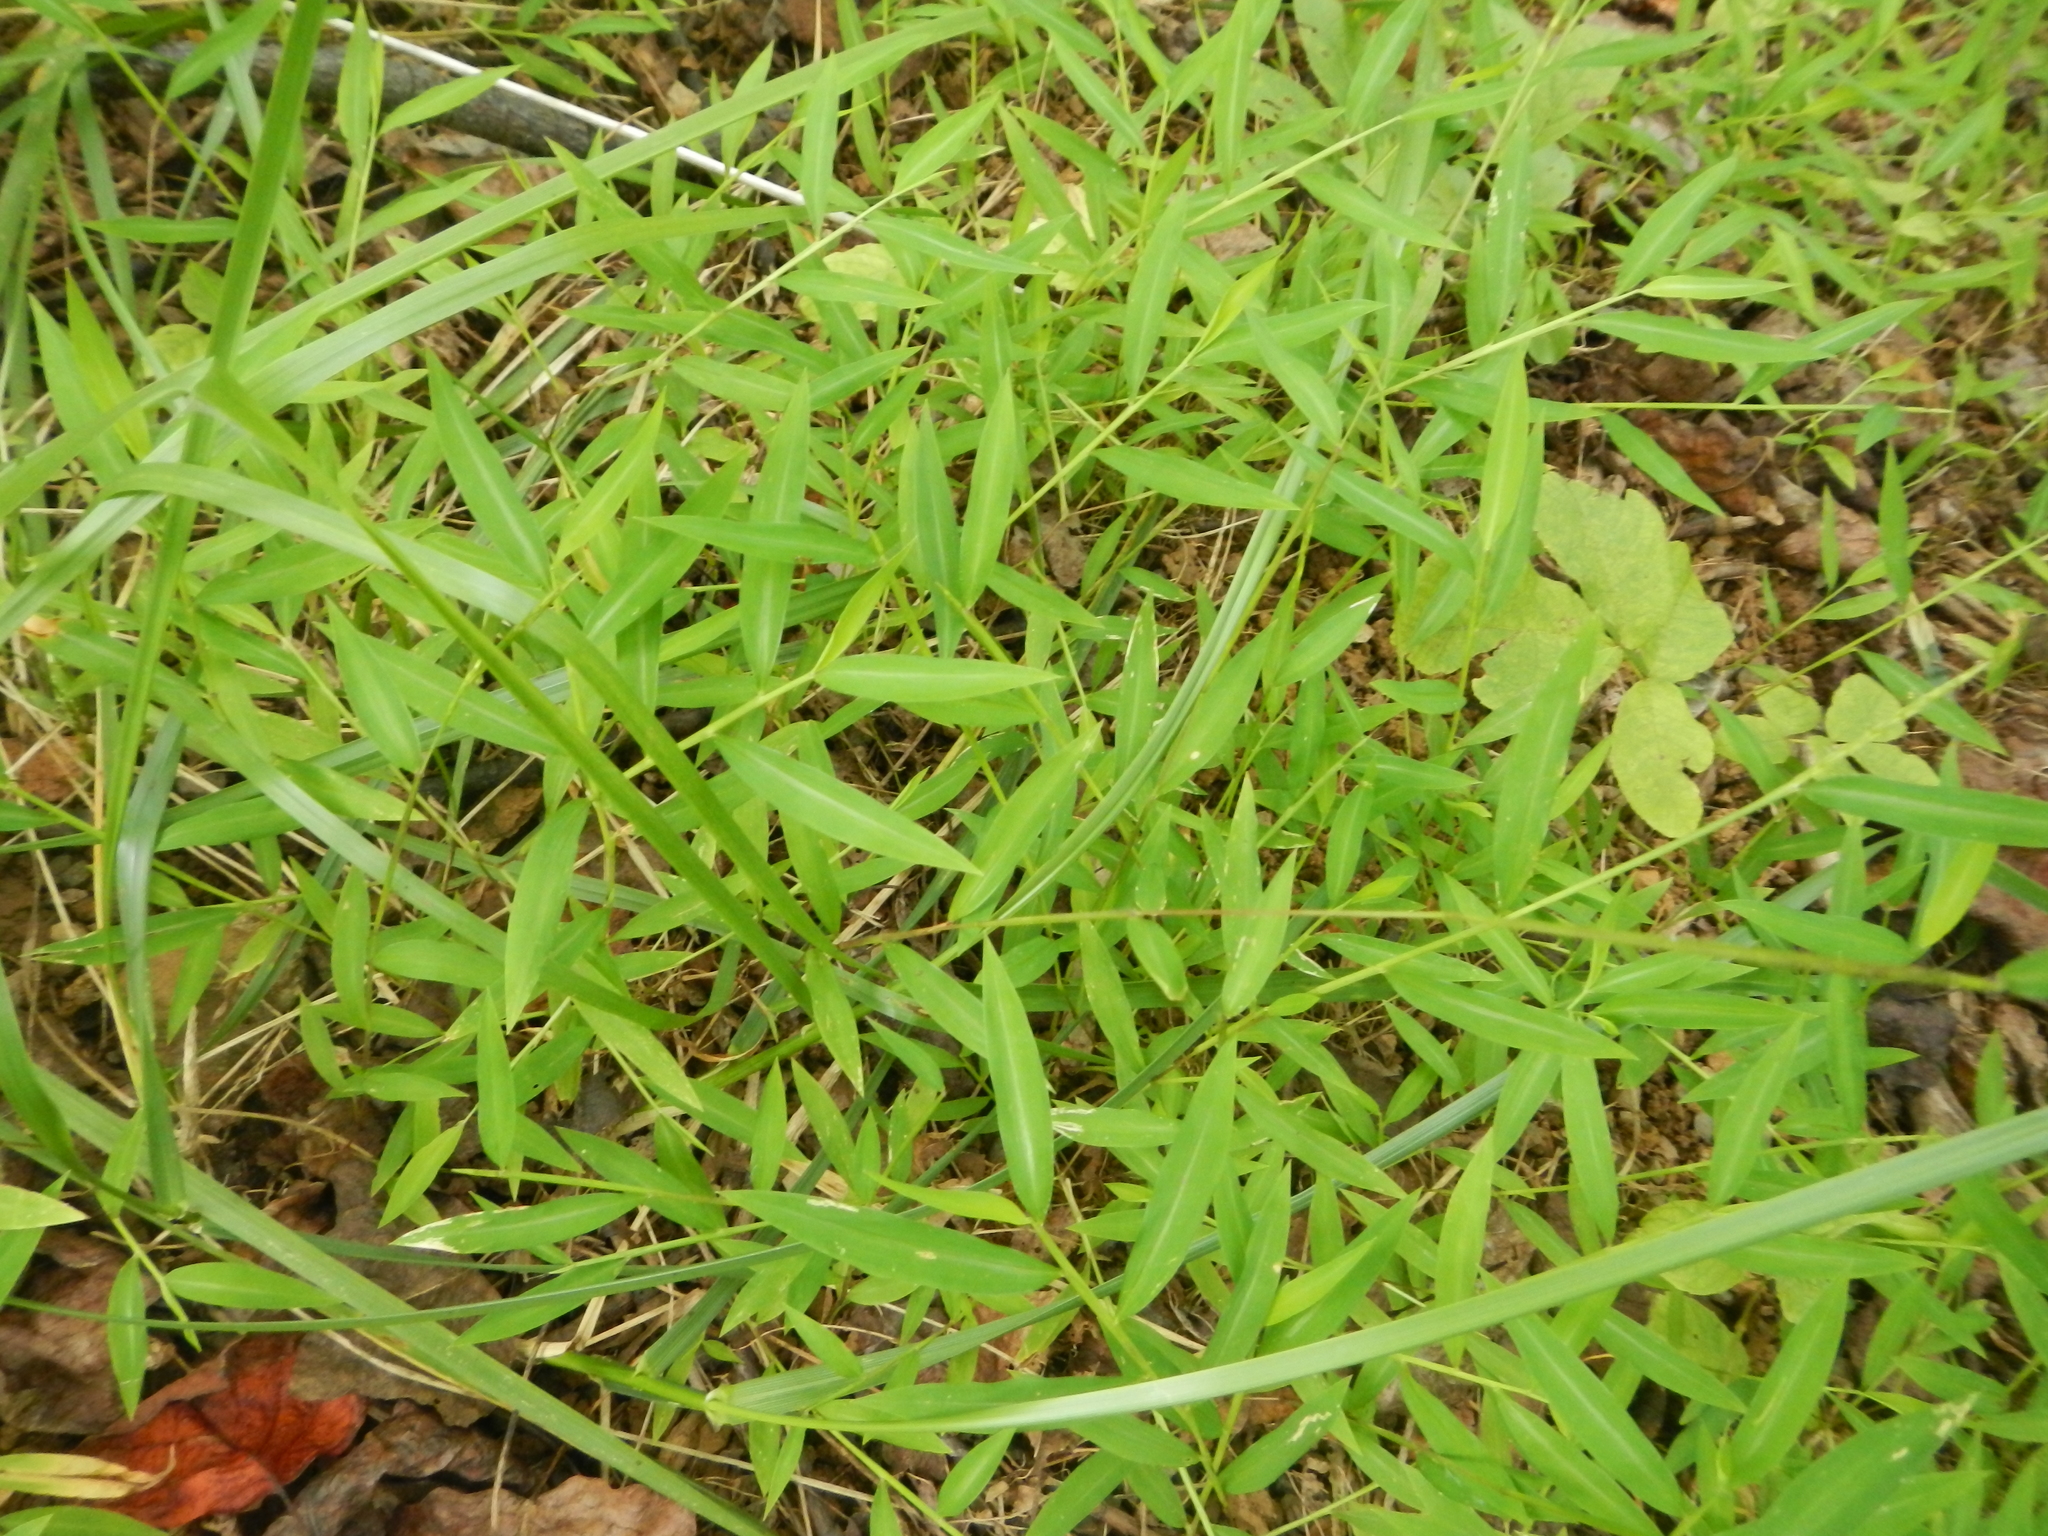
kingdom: Plantae
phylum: Tracheophyta
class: Liliopsida
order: Poales
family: Poaceae
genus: Microstegium
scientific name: Microstegium vimineum
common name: Japanese stiltgrass
